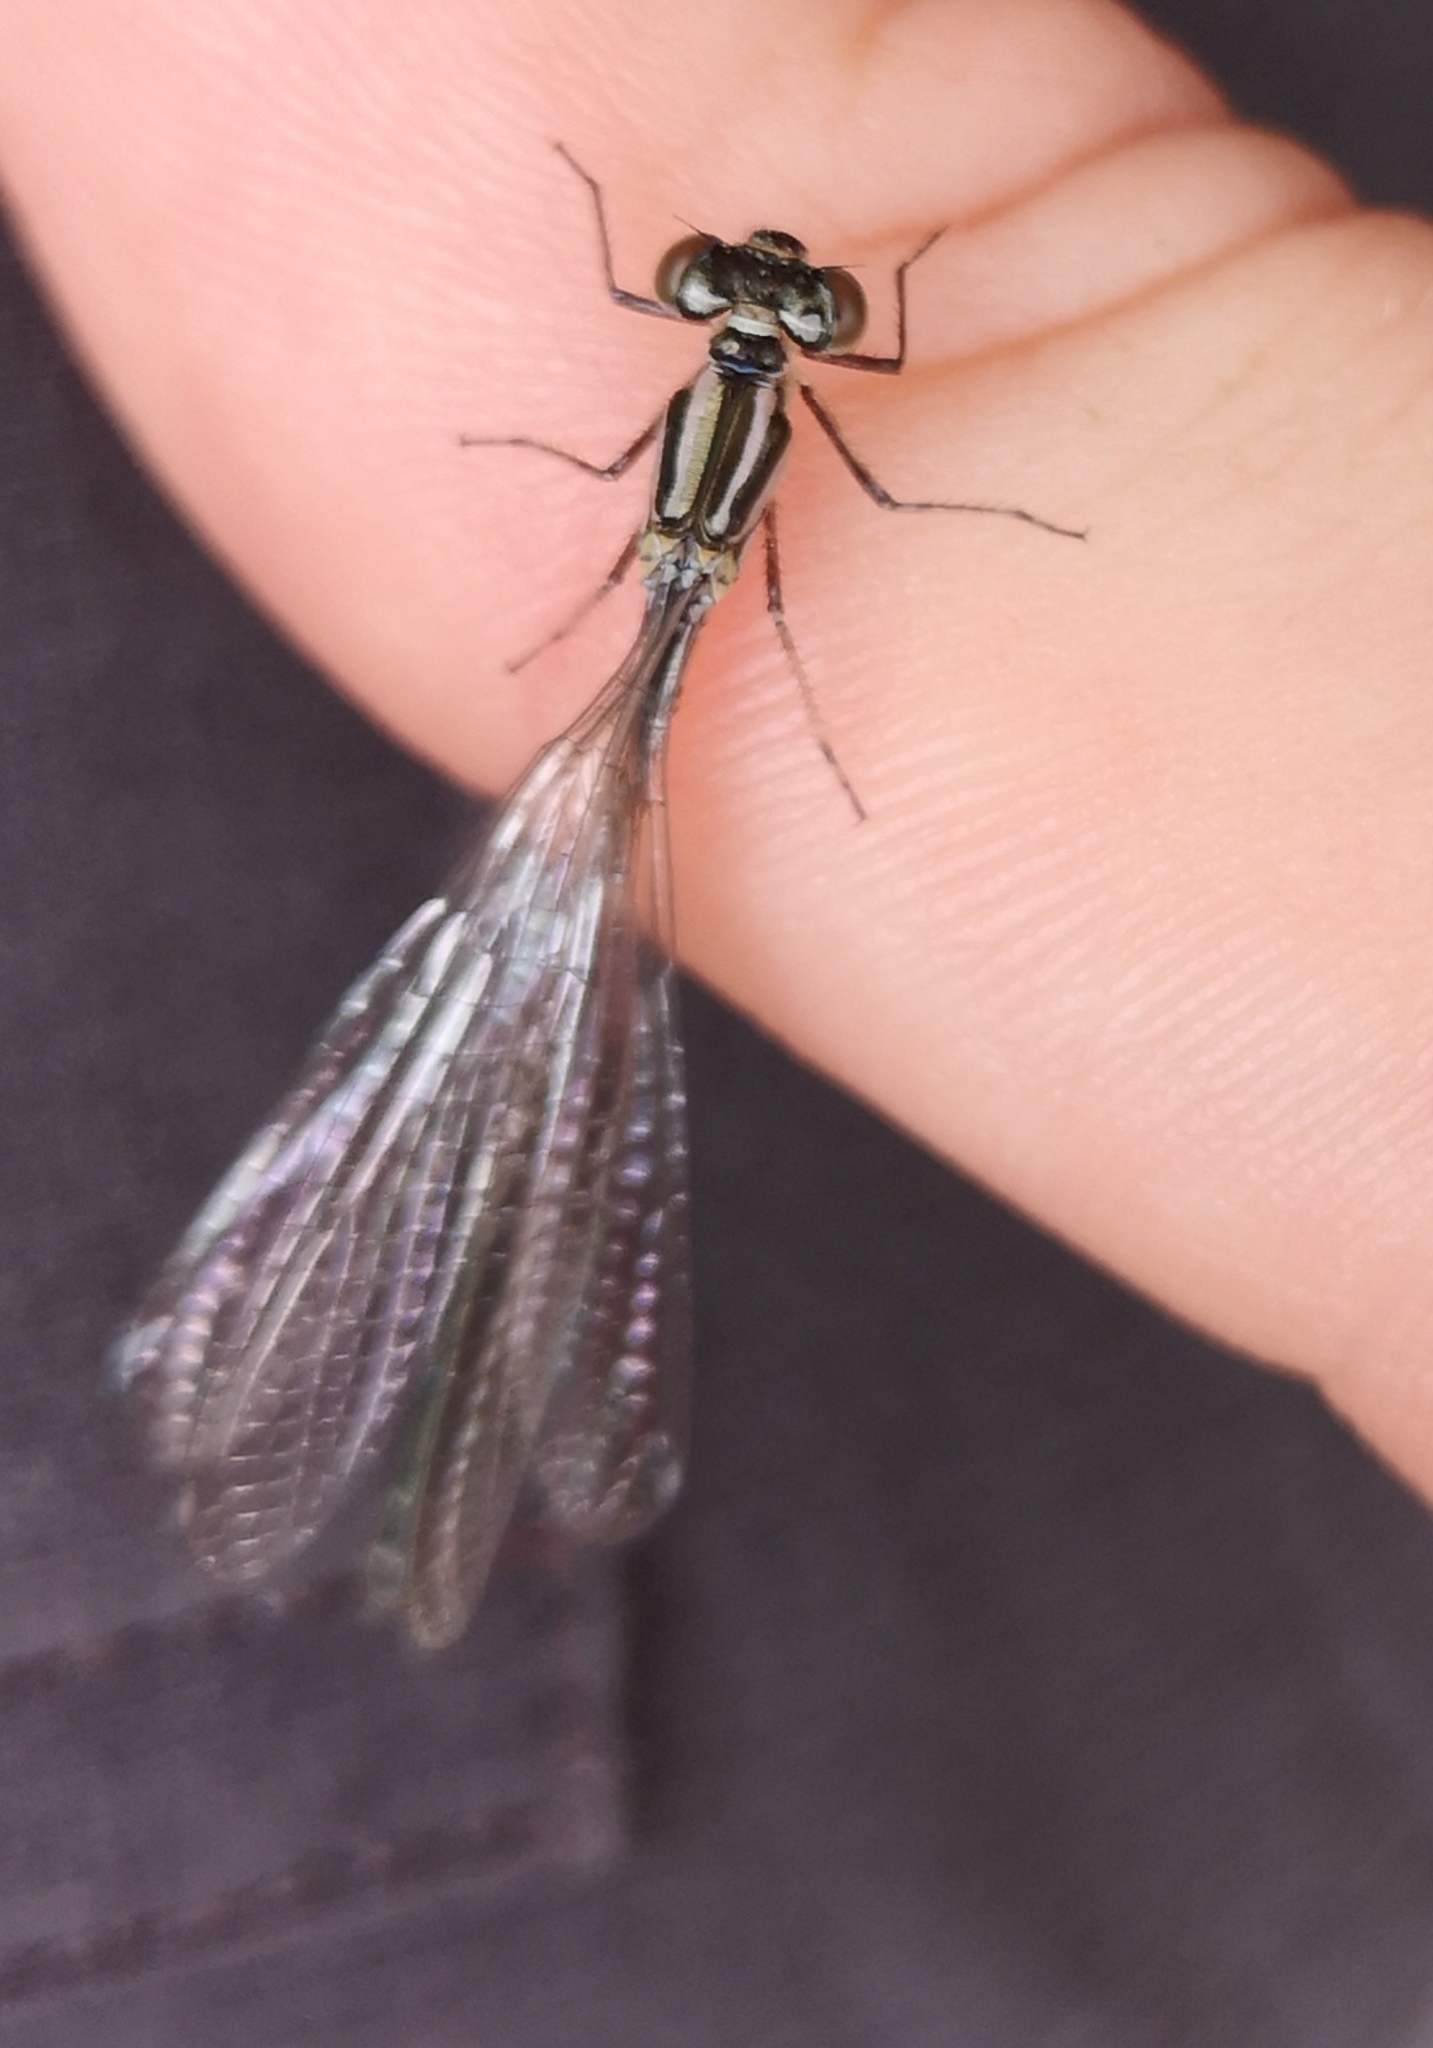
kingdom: Animalia
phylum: Arthropoda
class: Insecta
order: Odonata
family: Coenagrionidae
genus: Coenagrion
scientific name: Coenagrion puella
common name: Azure damselfly
